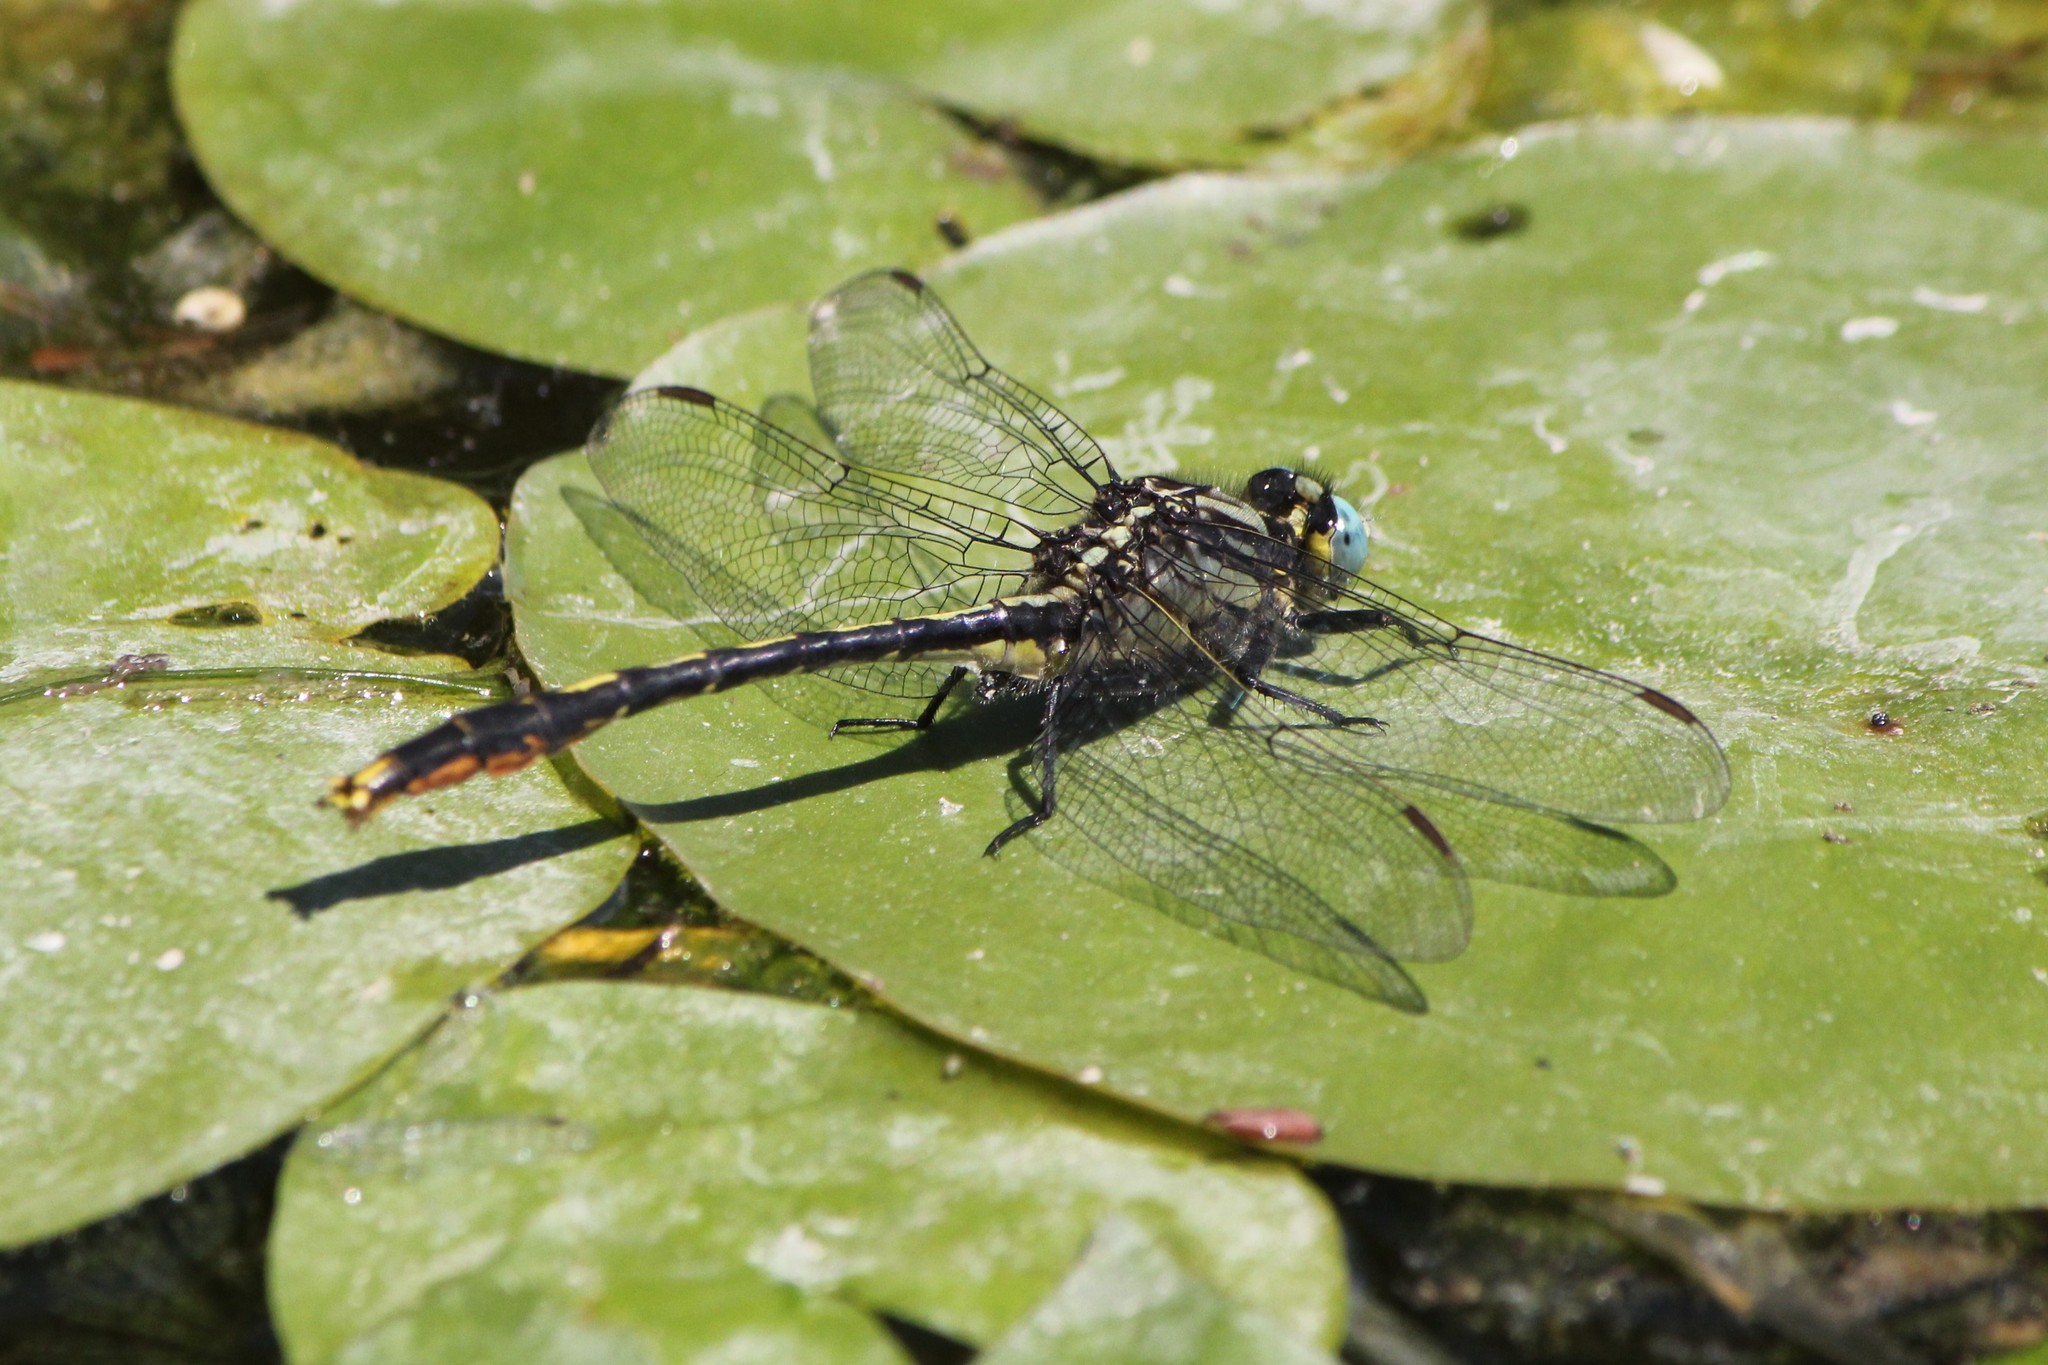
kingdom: Animalia
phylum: Arthropoda
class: Insecta
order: Odonata
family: Gomphidae
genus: Arigomphus
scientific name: Arigomphus furcifer
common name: Lilypad clubtail
